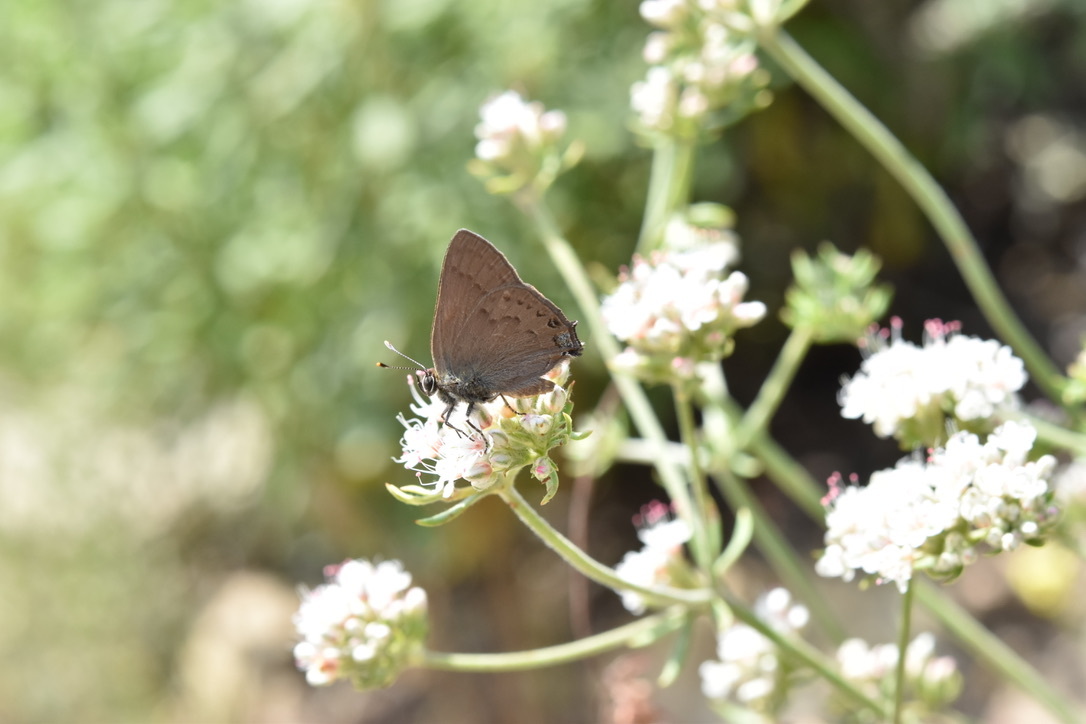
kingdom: Animalia
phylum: Arthropoda
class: Insecta
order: Lepidoptera
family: Lycaenidae
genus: Strymon
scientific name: Strymon saepium
